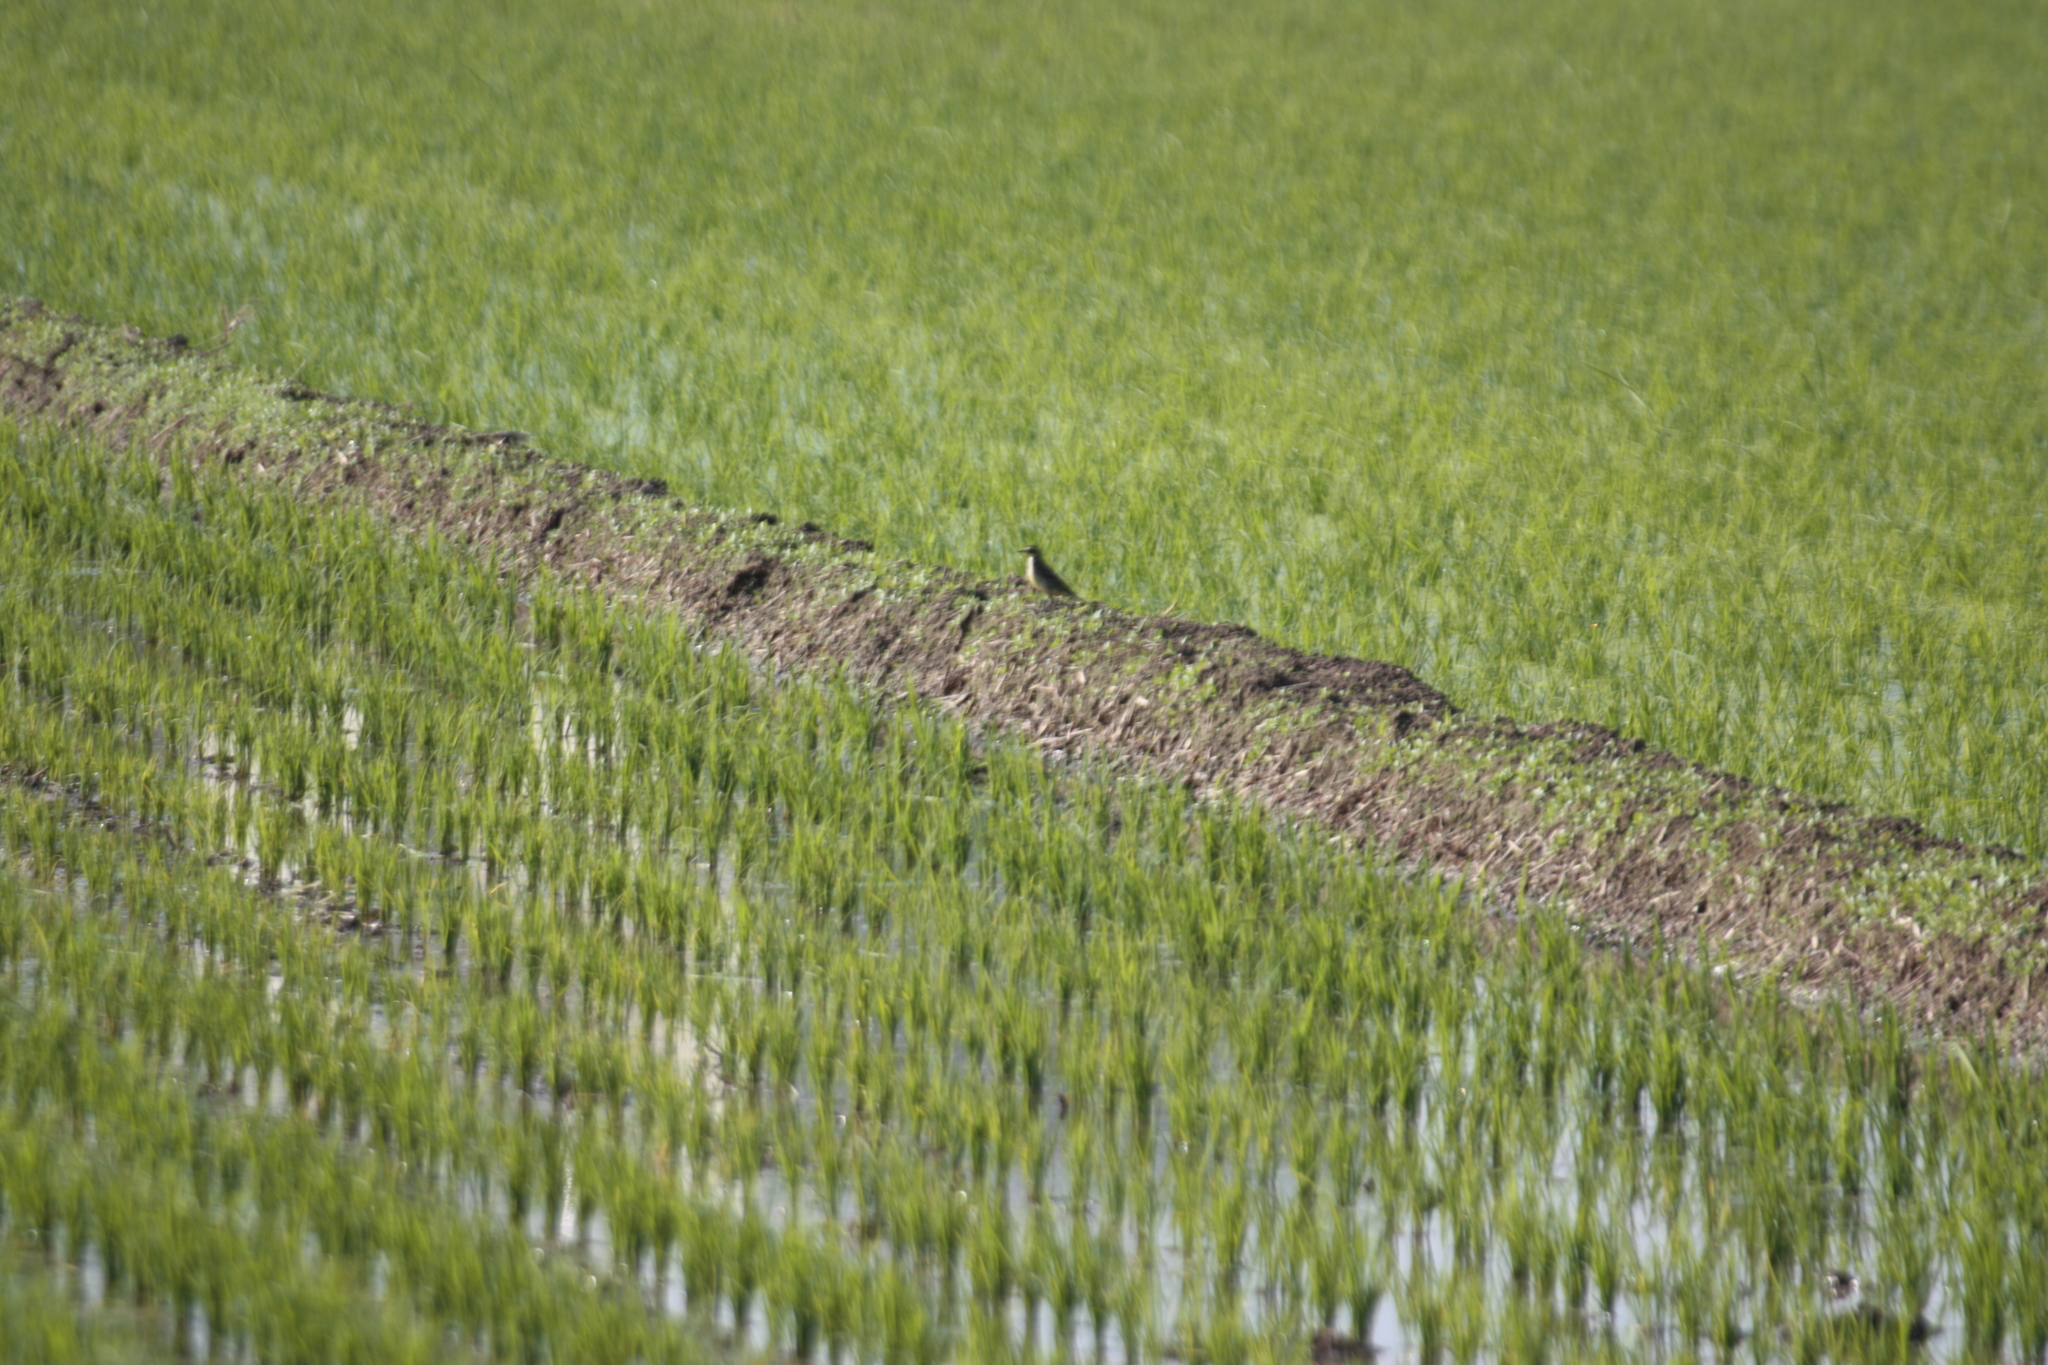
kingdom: Animalia
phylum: Chordata
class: Aves
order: Passeriformes
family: Motacillidae
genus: Motacilla
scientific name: Motacilla tschutschensis
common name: Eastern yellow wagtail
